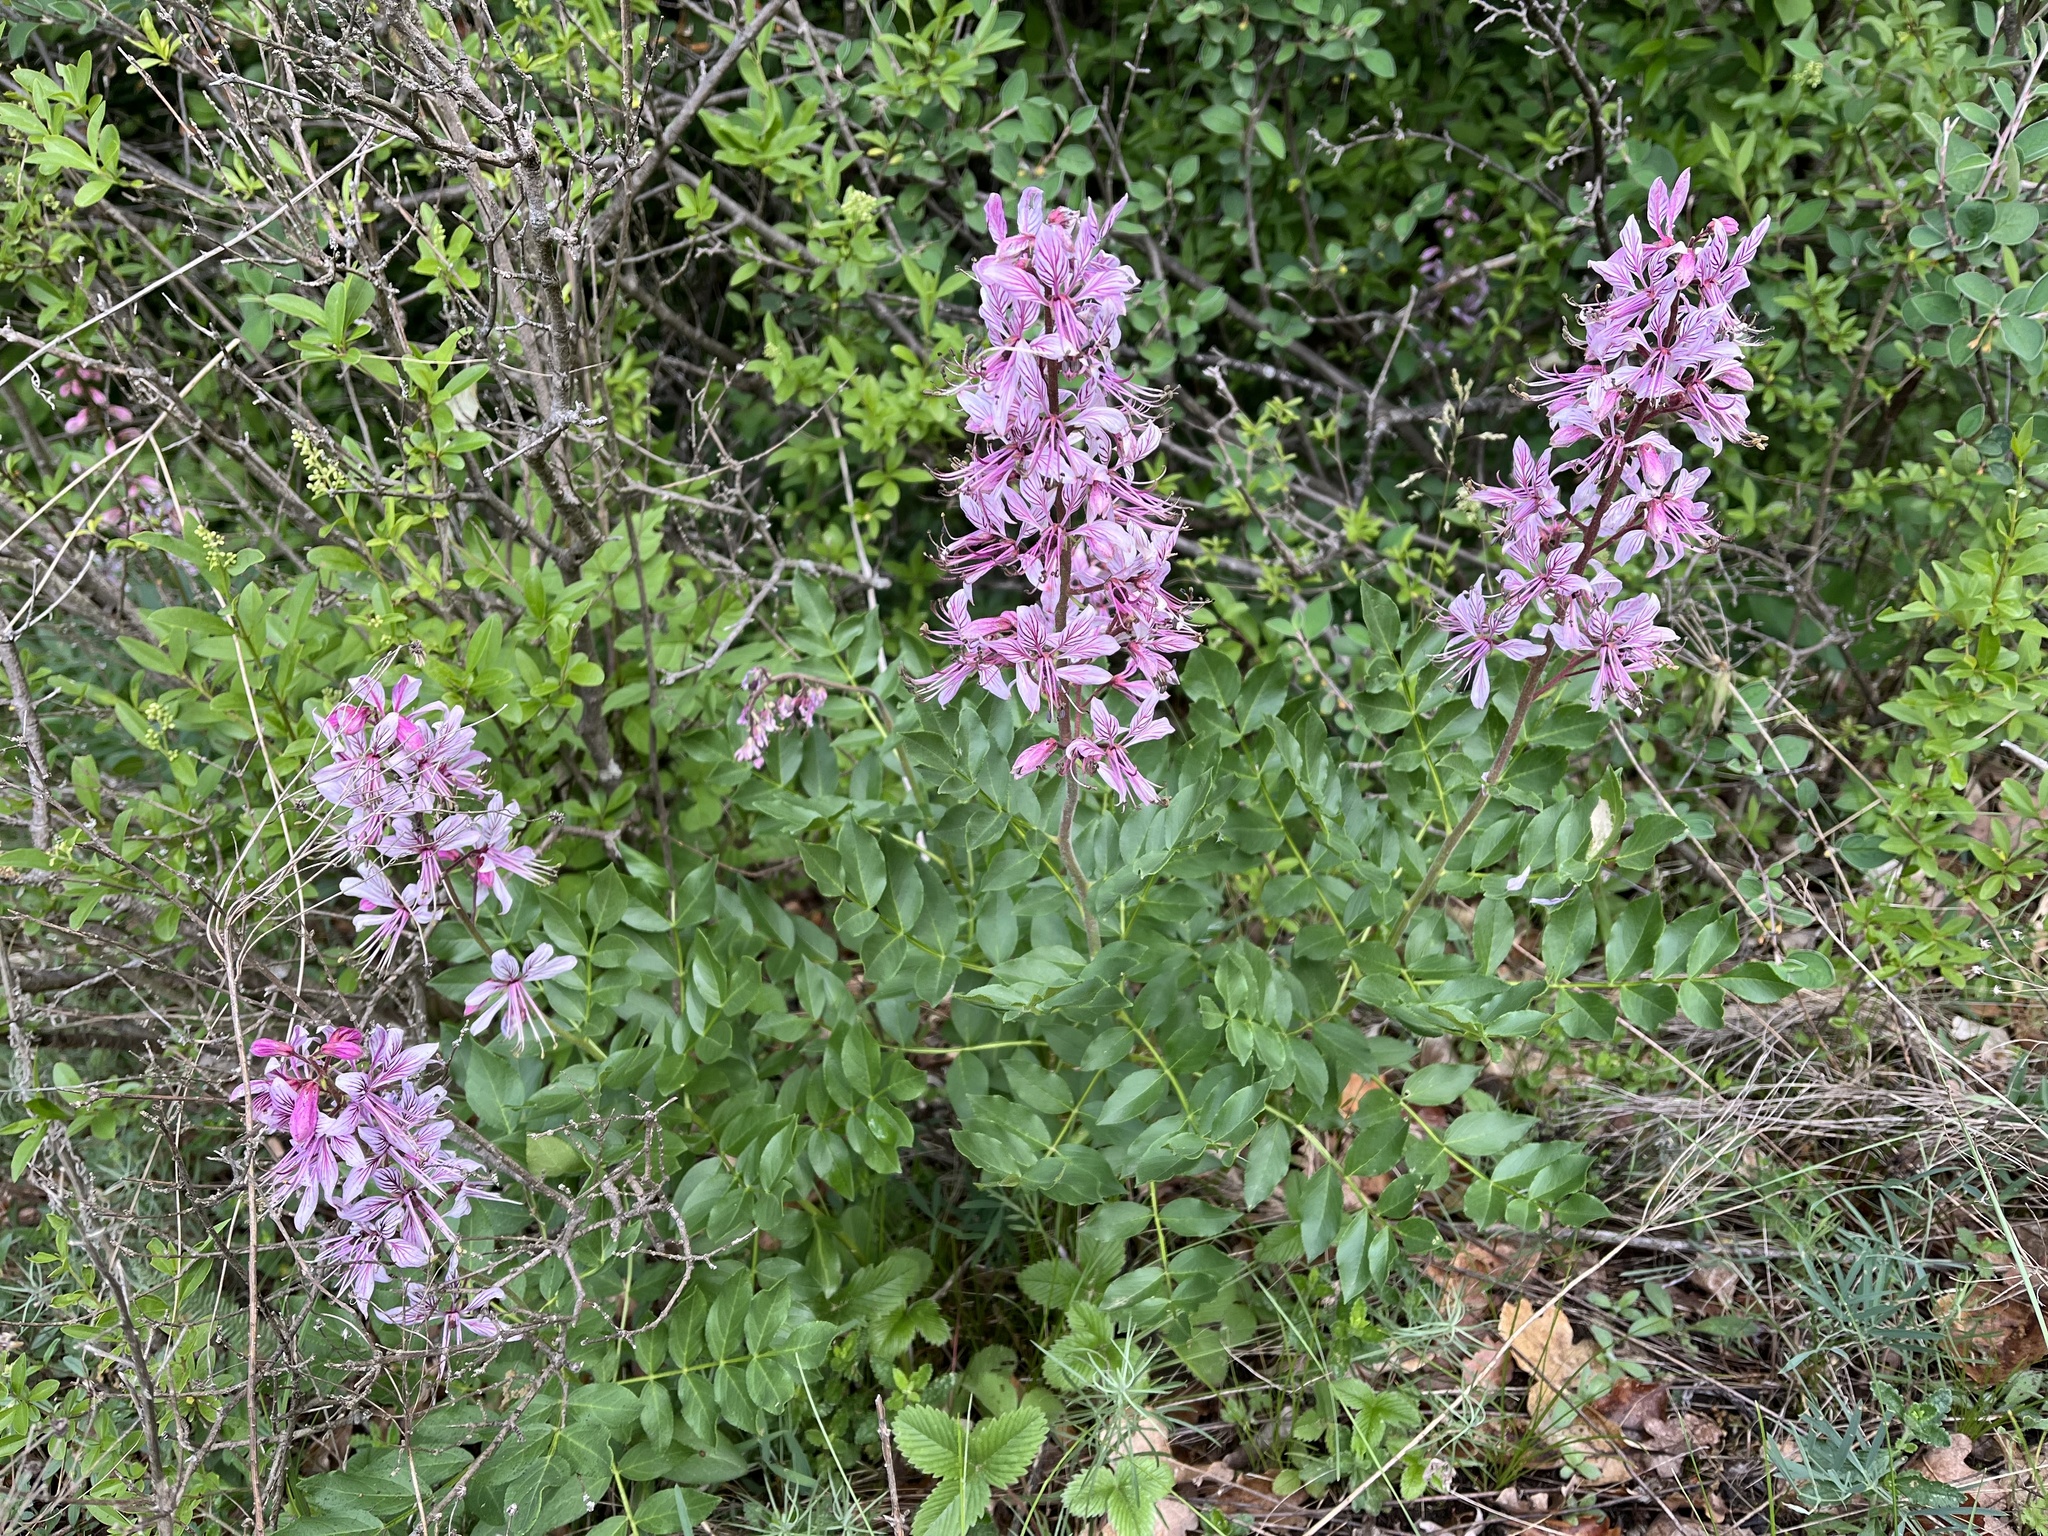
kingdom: Plantae
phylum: Tracheophyta
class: Magnoliopsida
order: Sapindales
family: Rutaceae
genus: Dictamnus
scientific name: Dictamnus albus
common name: Gasplant
